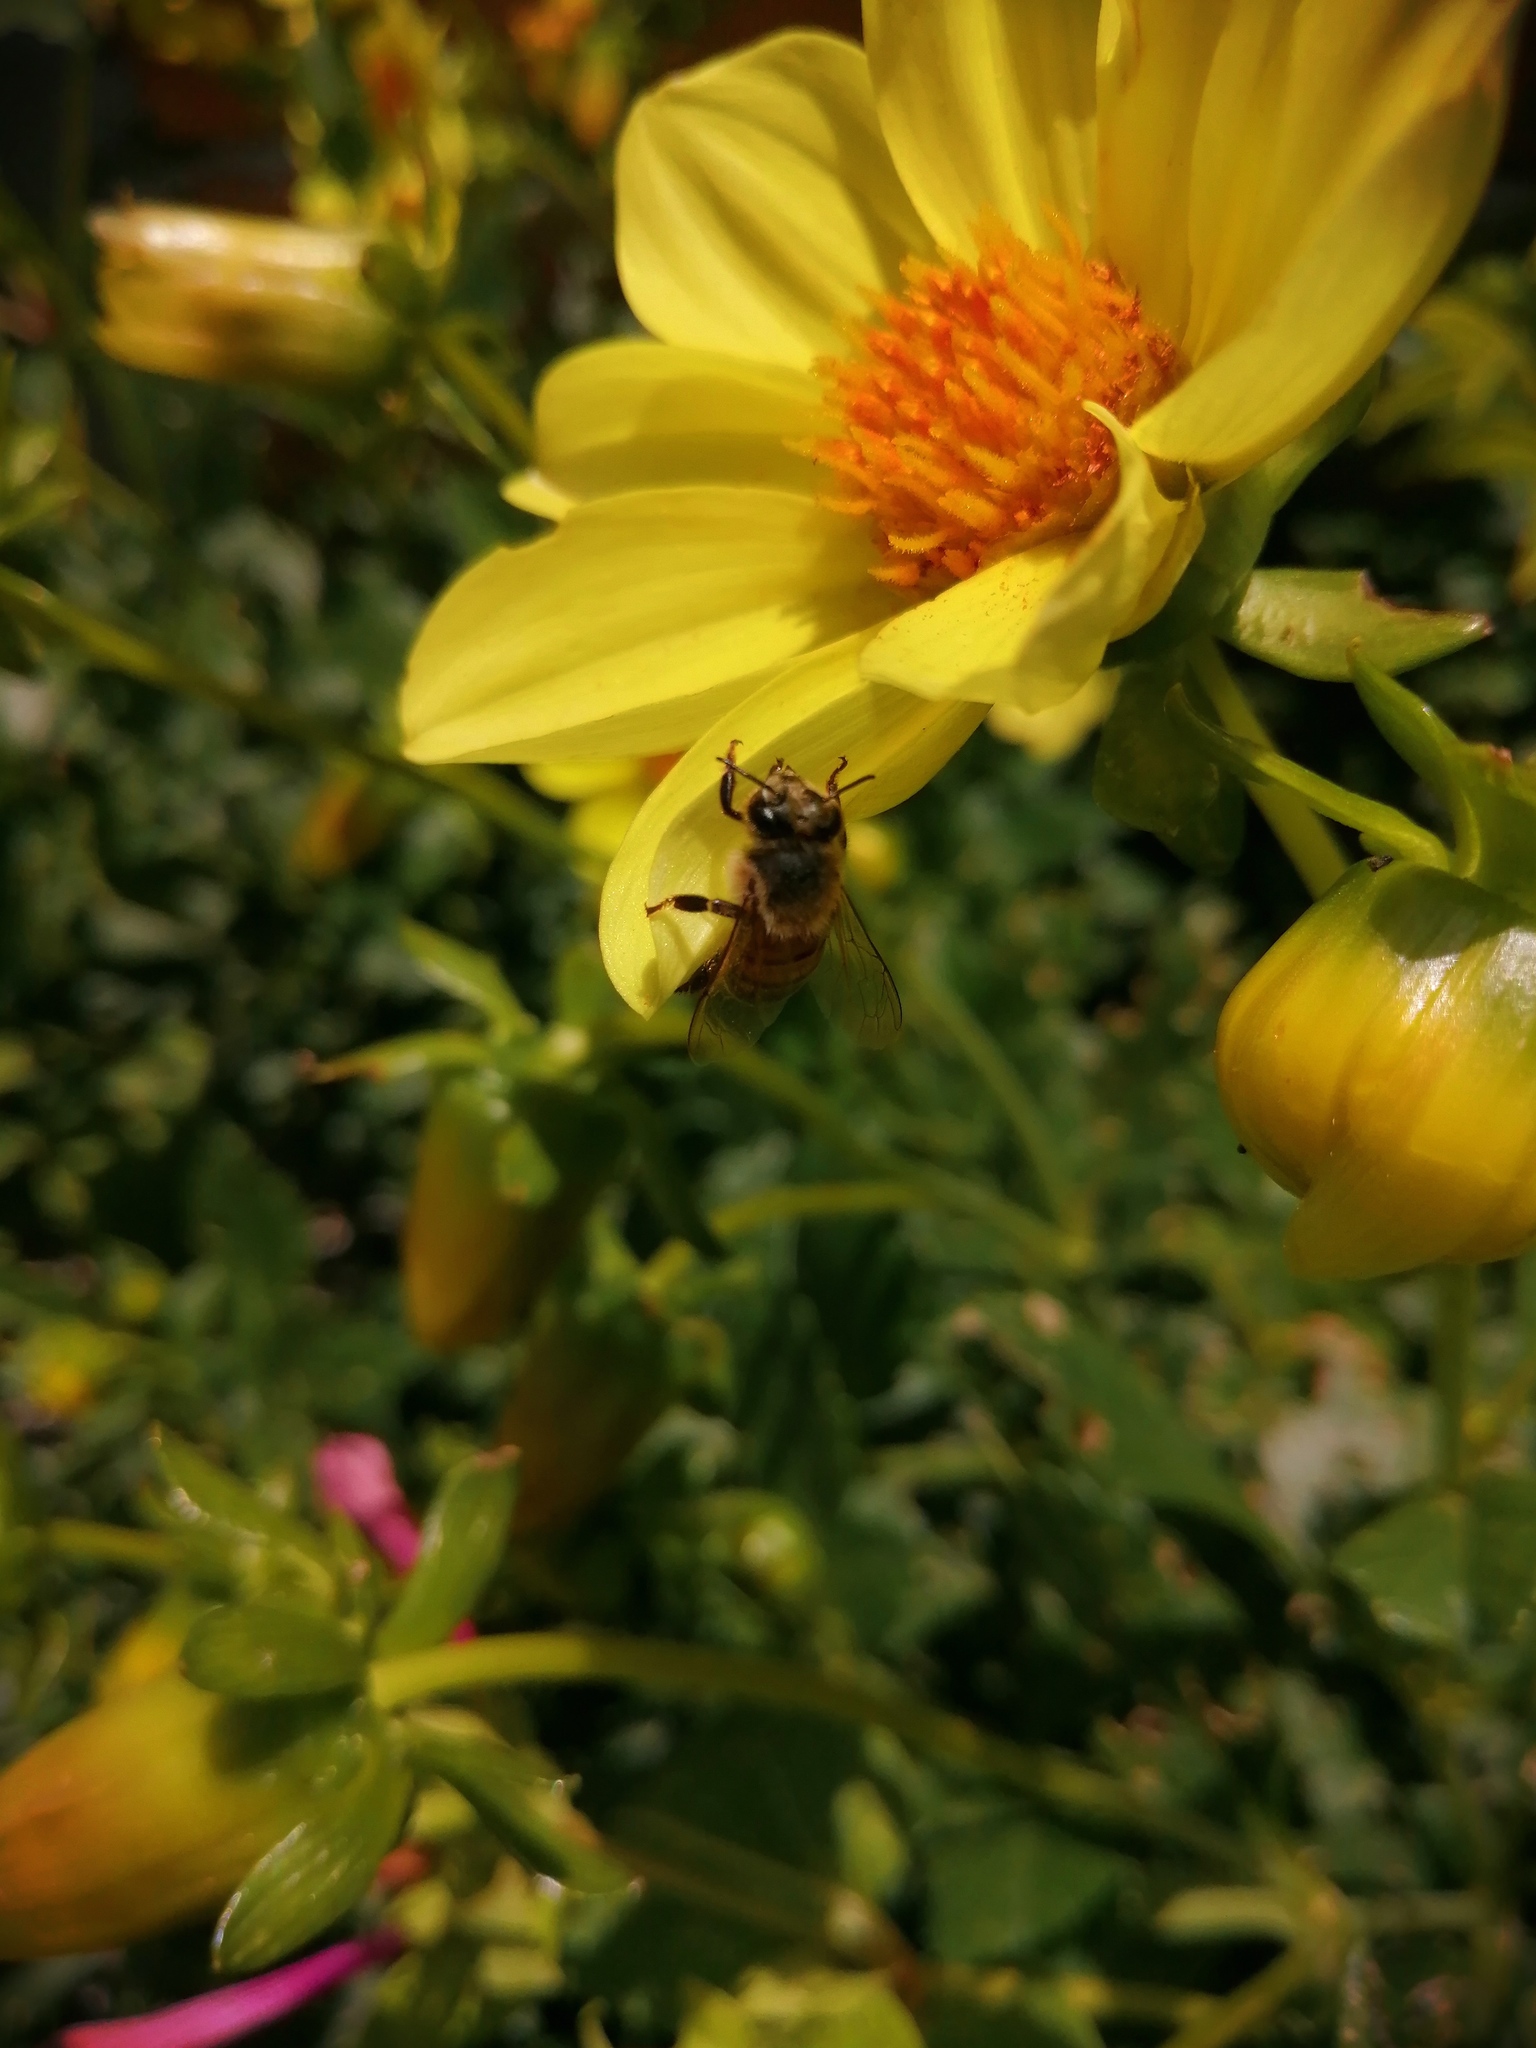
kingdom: Animalia
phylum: Arthropoda
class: Insecta
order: Hymenoptera
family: Apidae
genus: Apis
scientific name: Apis mellifera
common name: Honey bee
